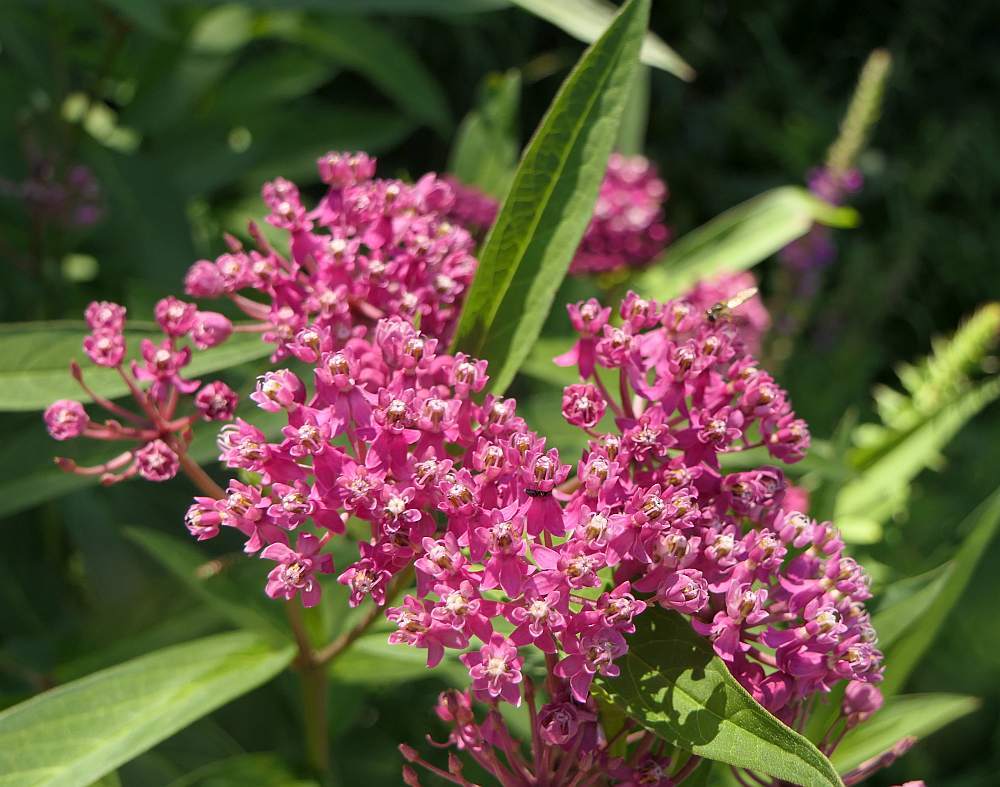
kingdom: Plantae
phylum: Tracheophyta
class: Magnoliopsida
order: Gentianales
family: Apocynaceae
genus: Asclepias
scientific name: Asclepias incarnata
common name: Swamp milkweed
